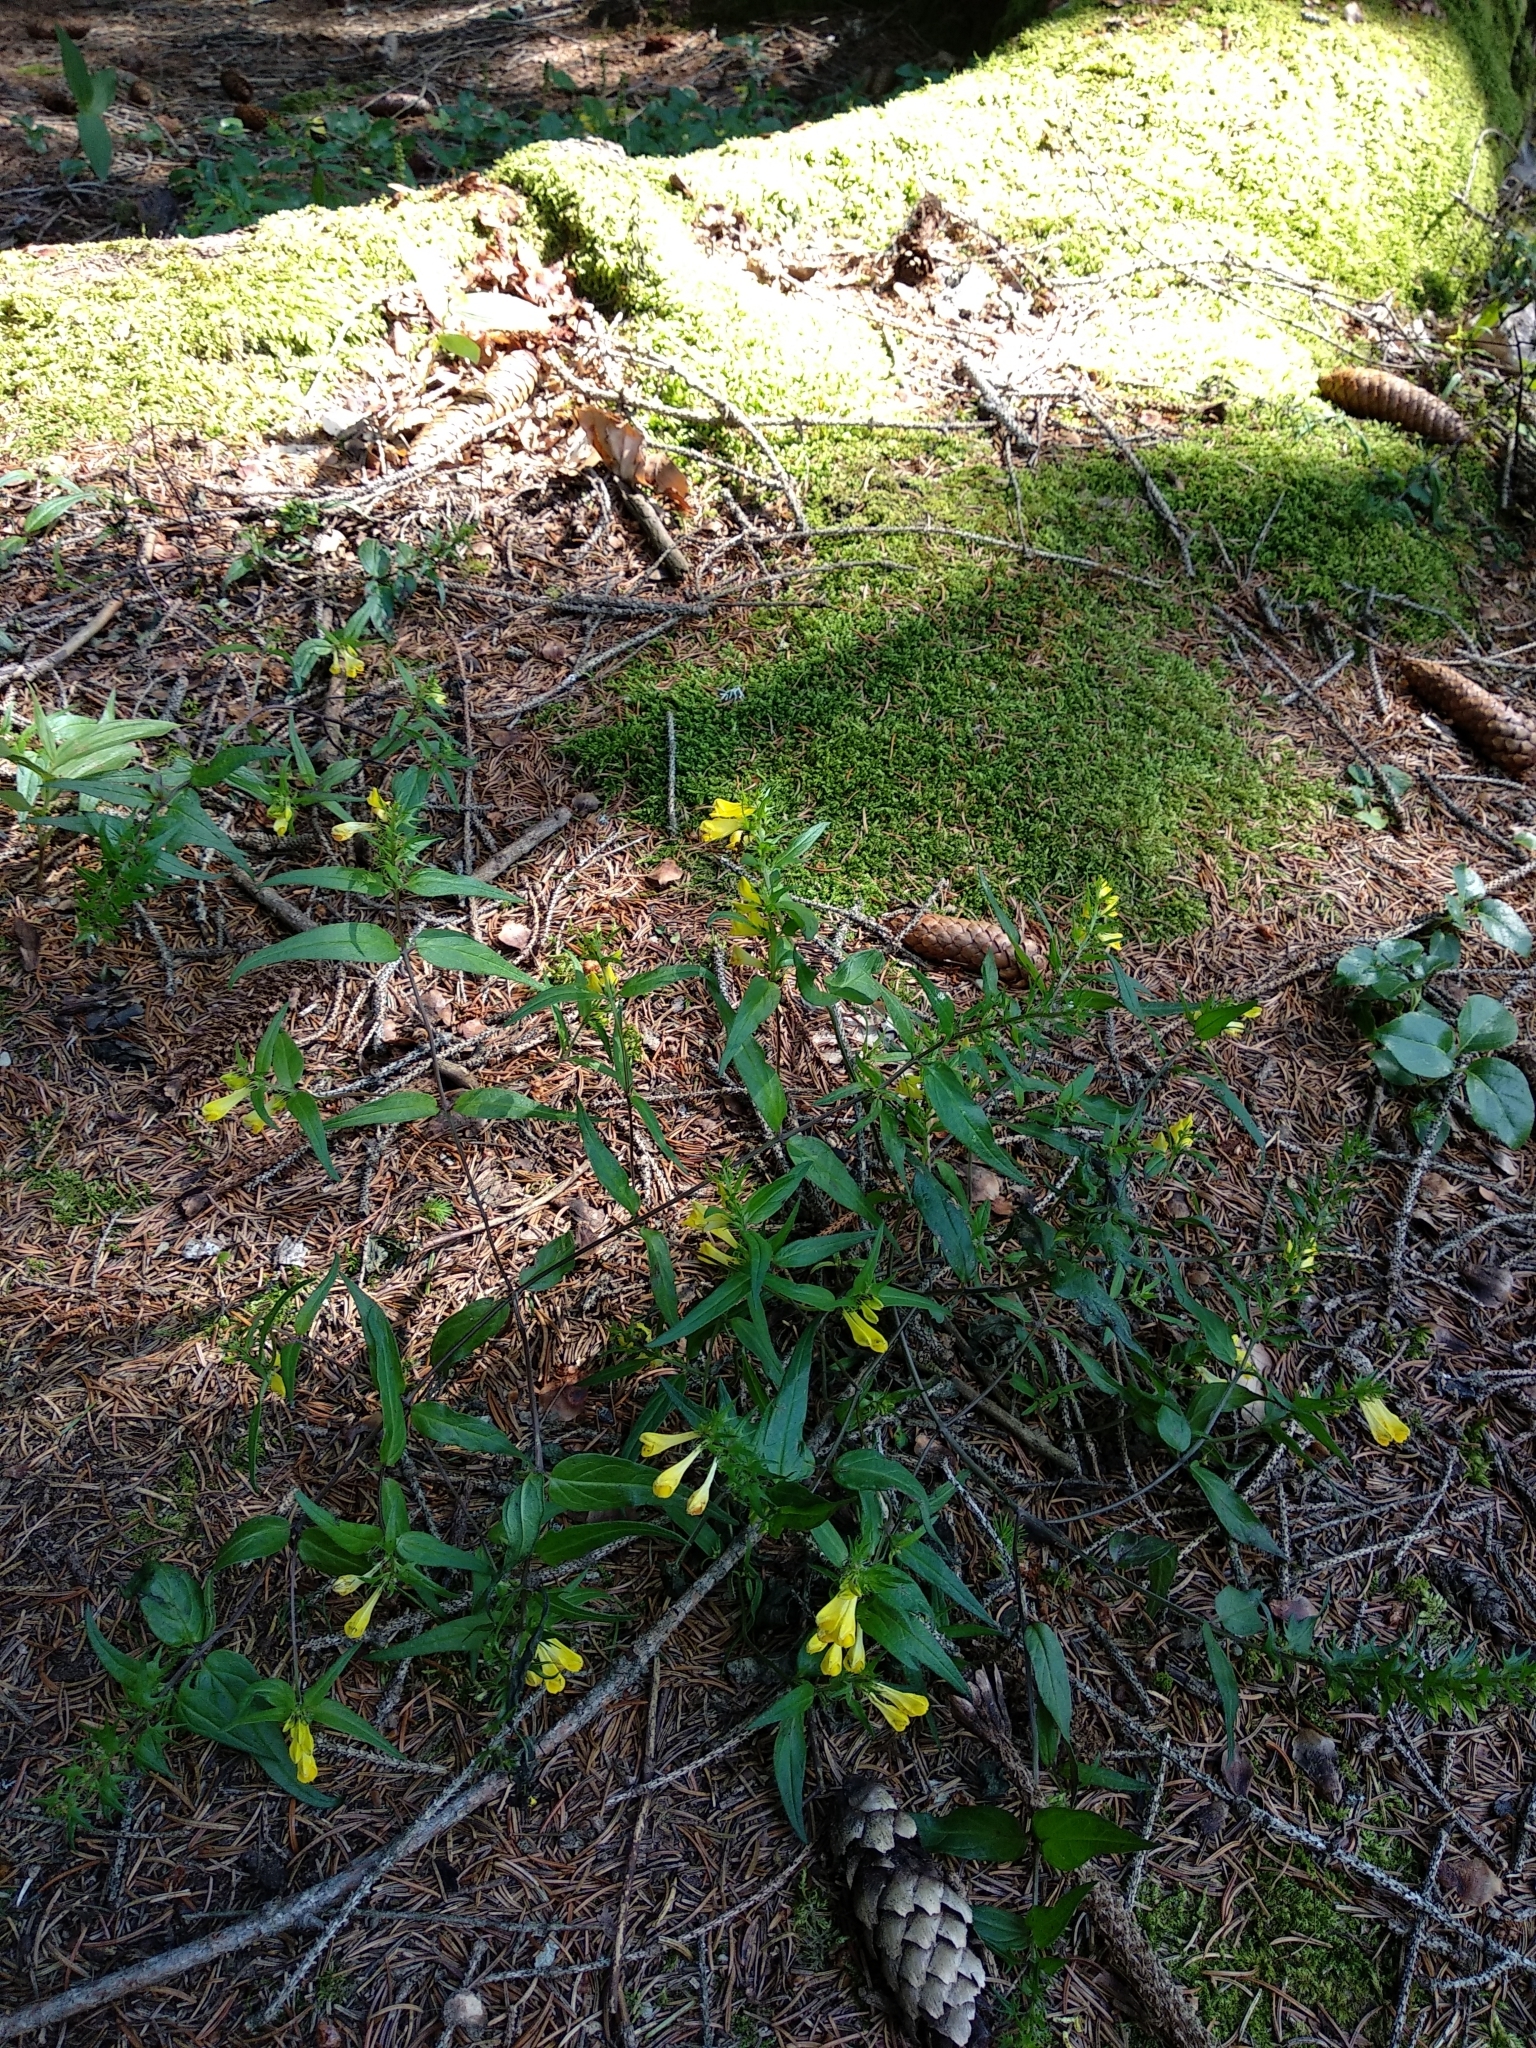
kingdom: Plantae
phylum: Tracheophyta
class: Magnoliopsida
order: Lamiales
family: Orobanchaceae
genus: Melampyrum
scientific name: Melampyrum pratense
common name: Common cow-wheat
